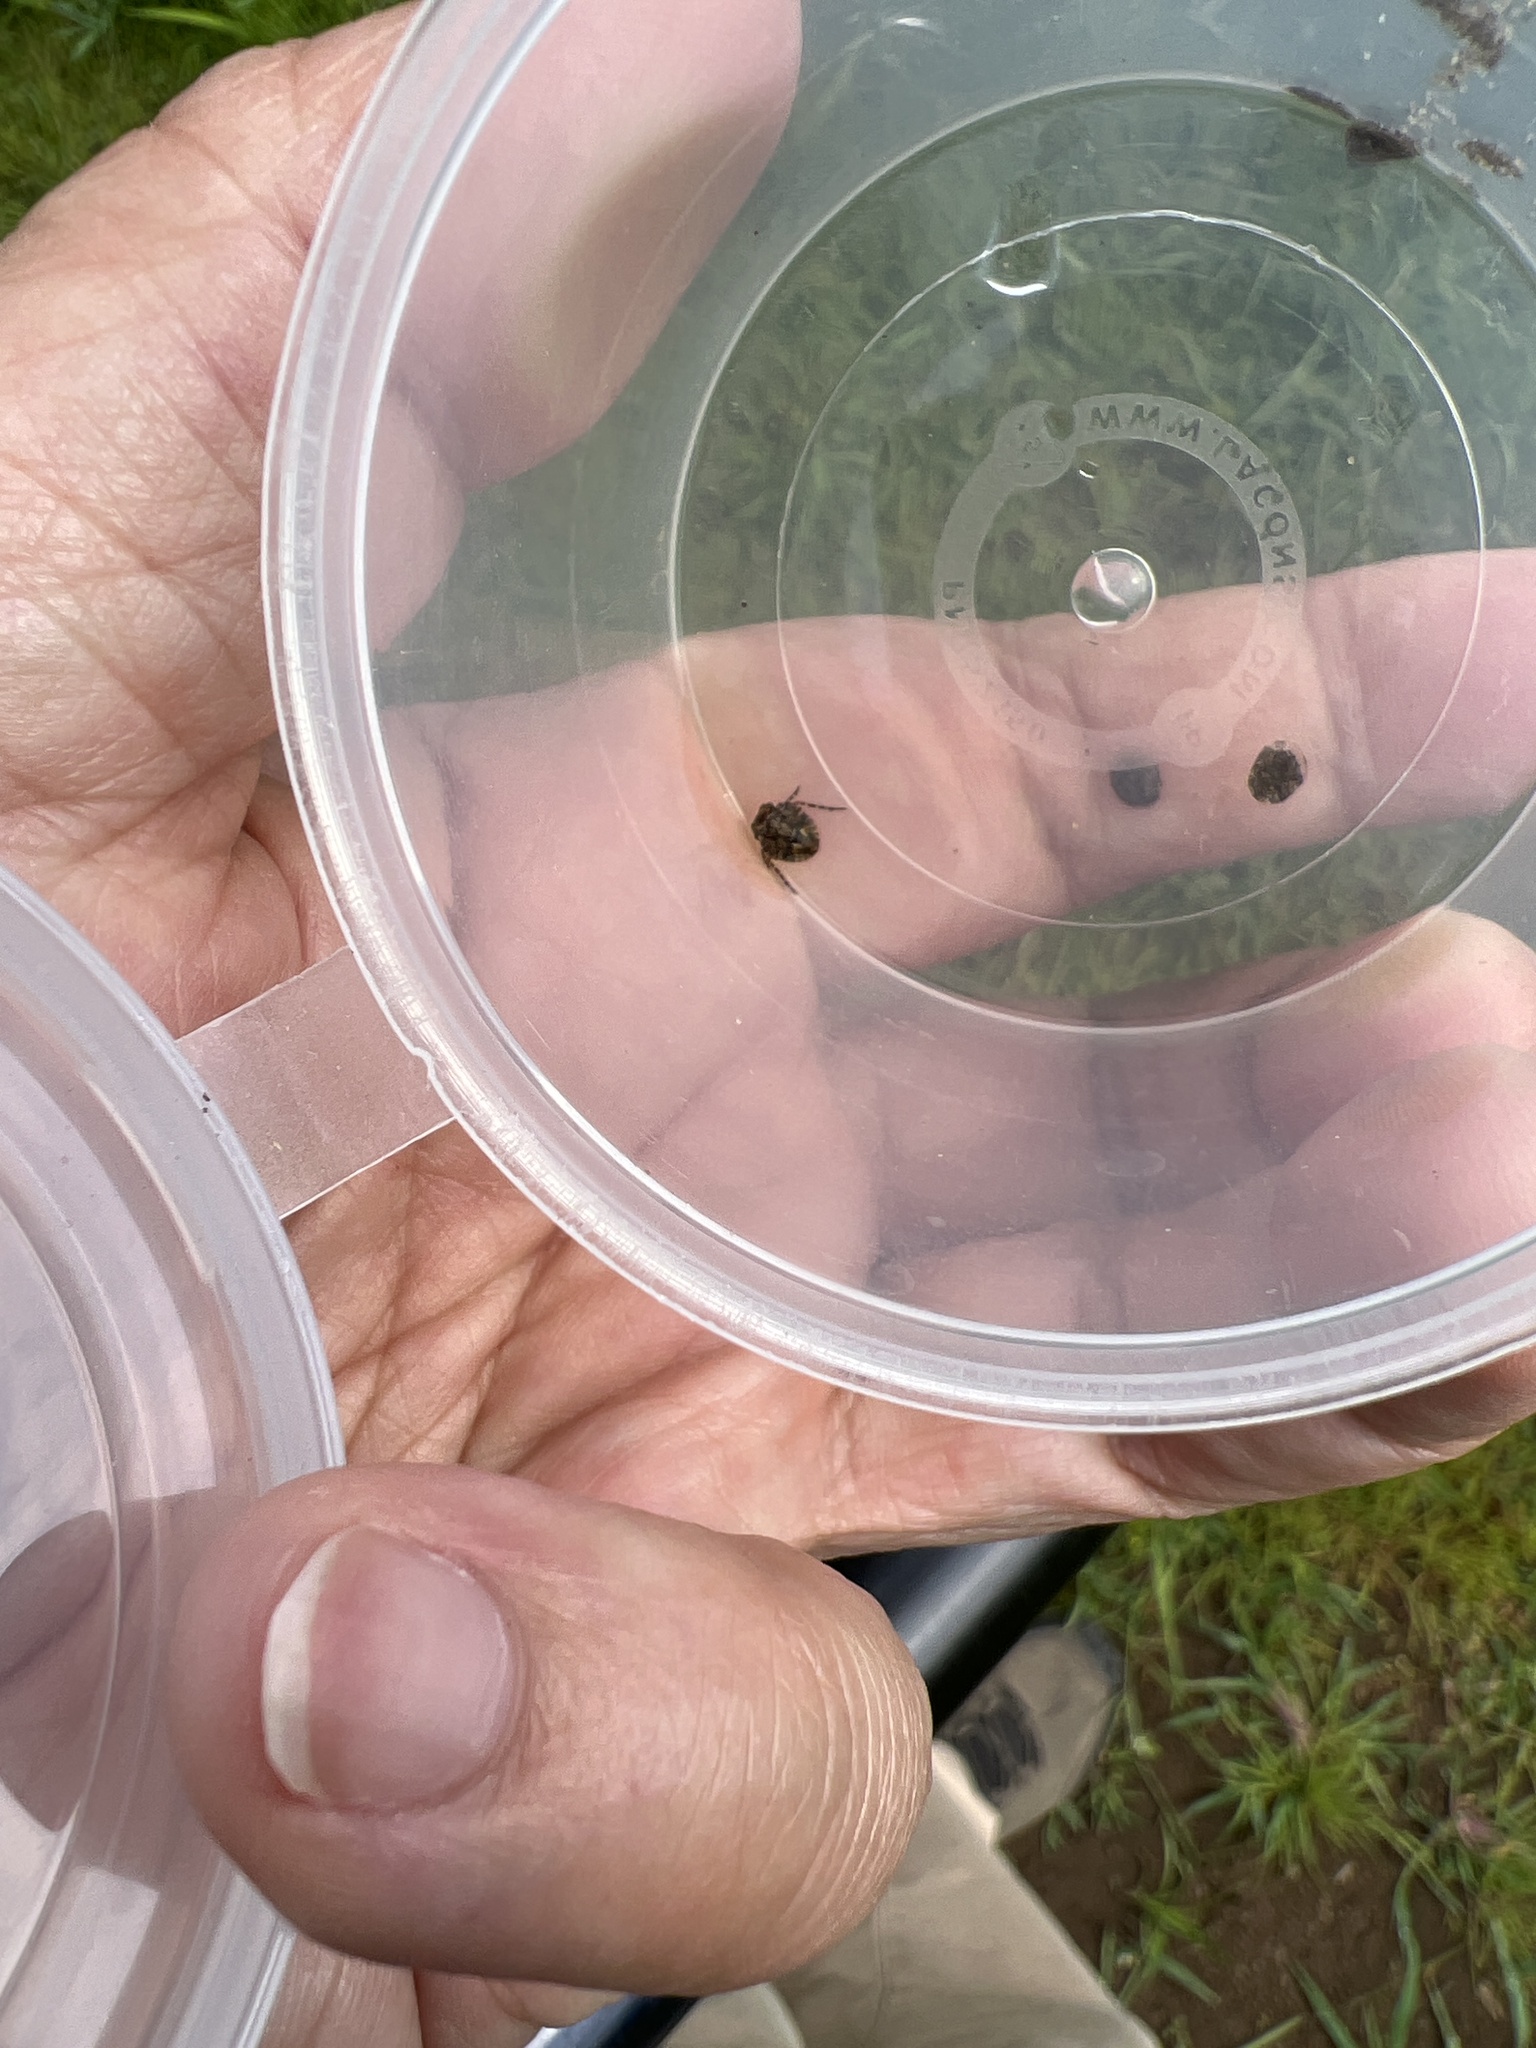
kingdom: Animalia
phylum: Arthropoda
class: Insecta
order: Hemiptera
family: Gelastocoridae
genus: Gelastocoris
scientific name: Gelastocoris oculatus
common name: Toad bug
